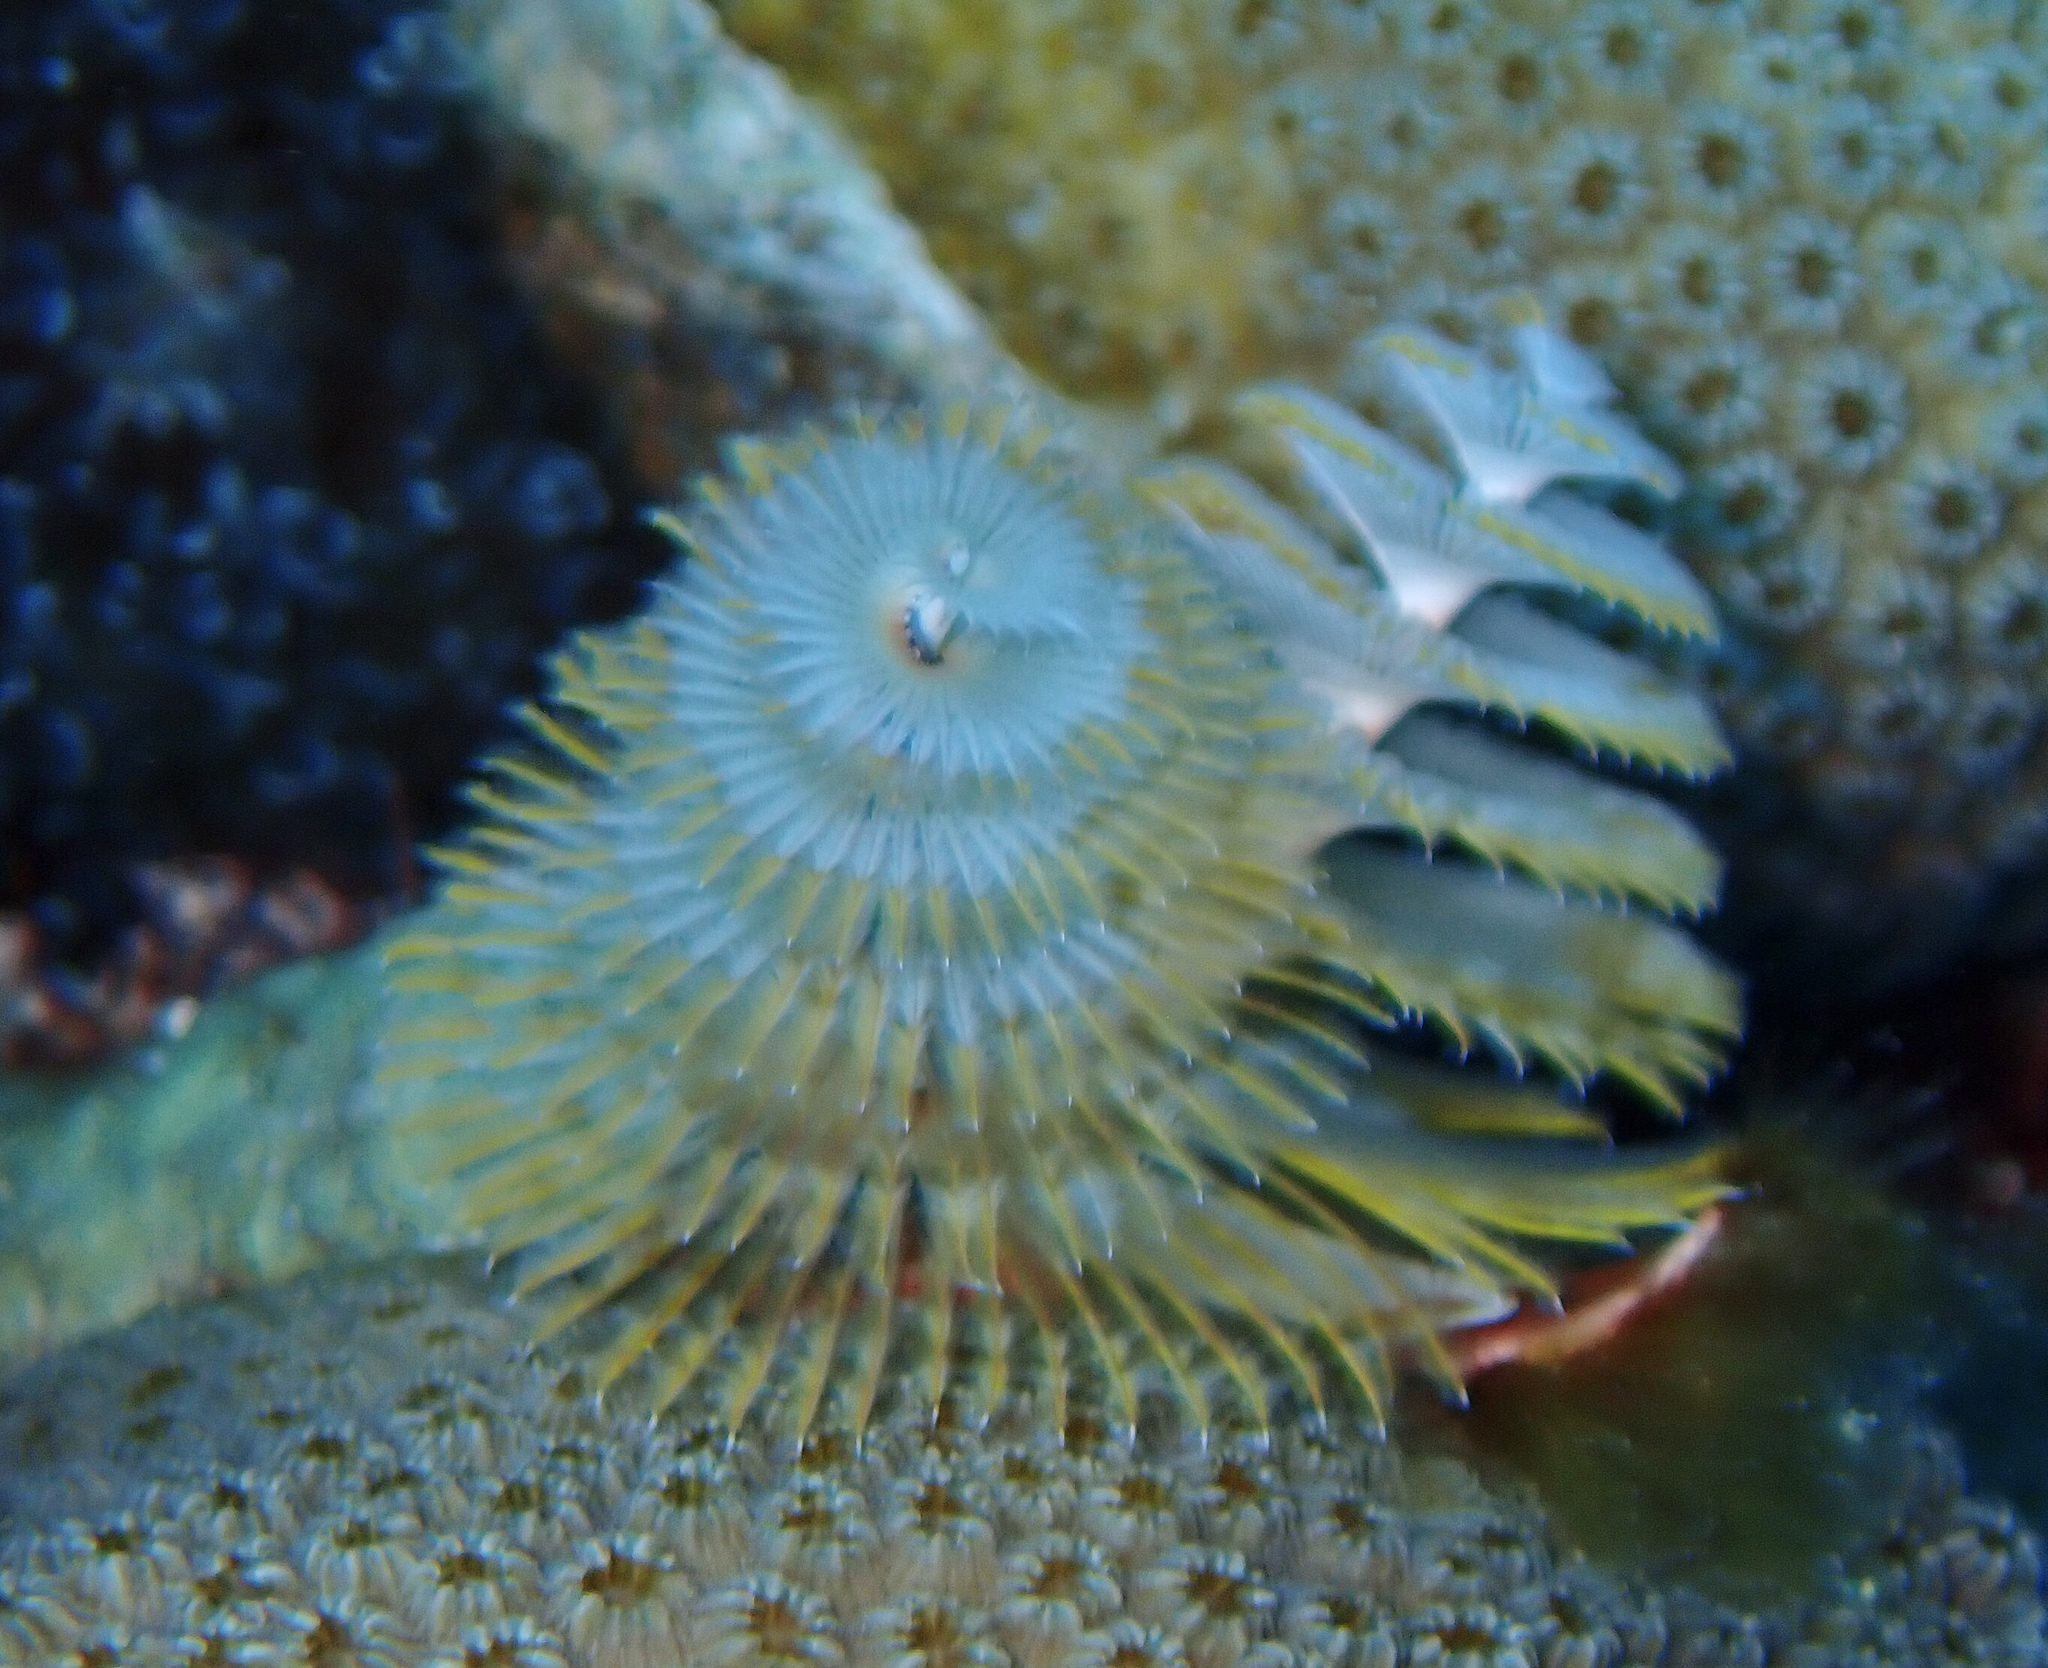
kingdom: Animalia
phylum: Annelida
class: Polychaeta
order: Sabellida
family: Serpulidae
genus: Spirobranchus
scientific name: Spirobranchus giganteus
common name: Christmas tree worm
